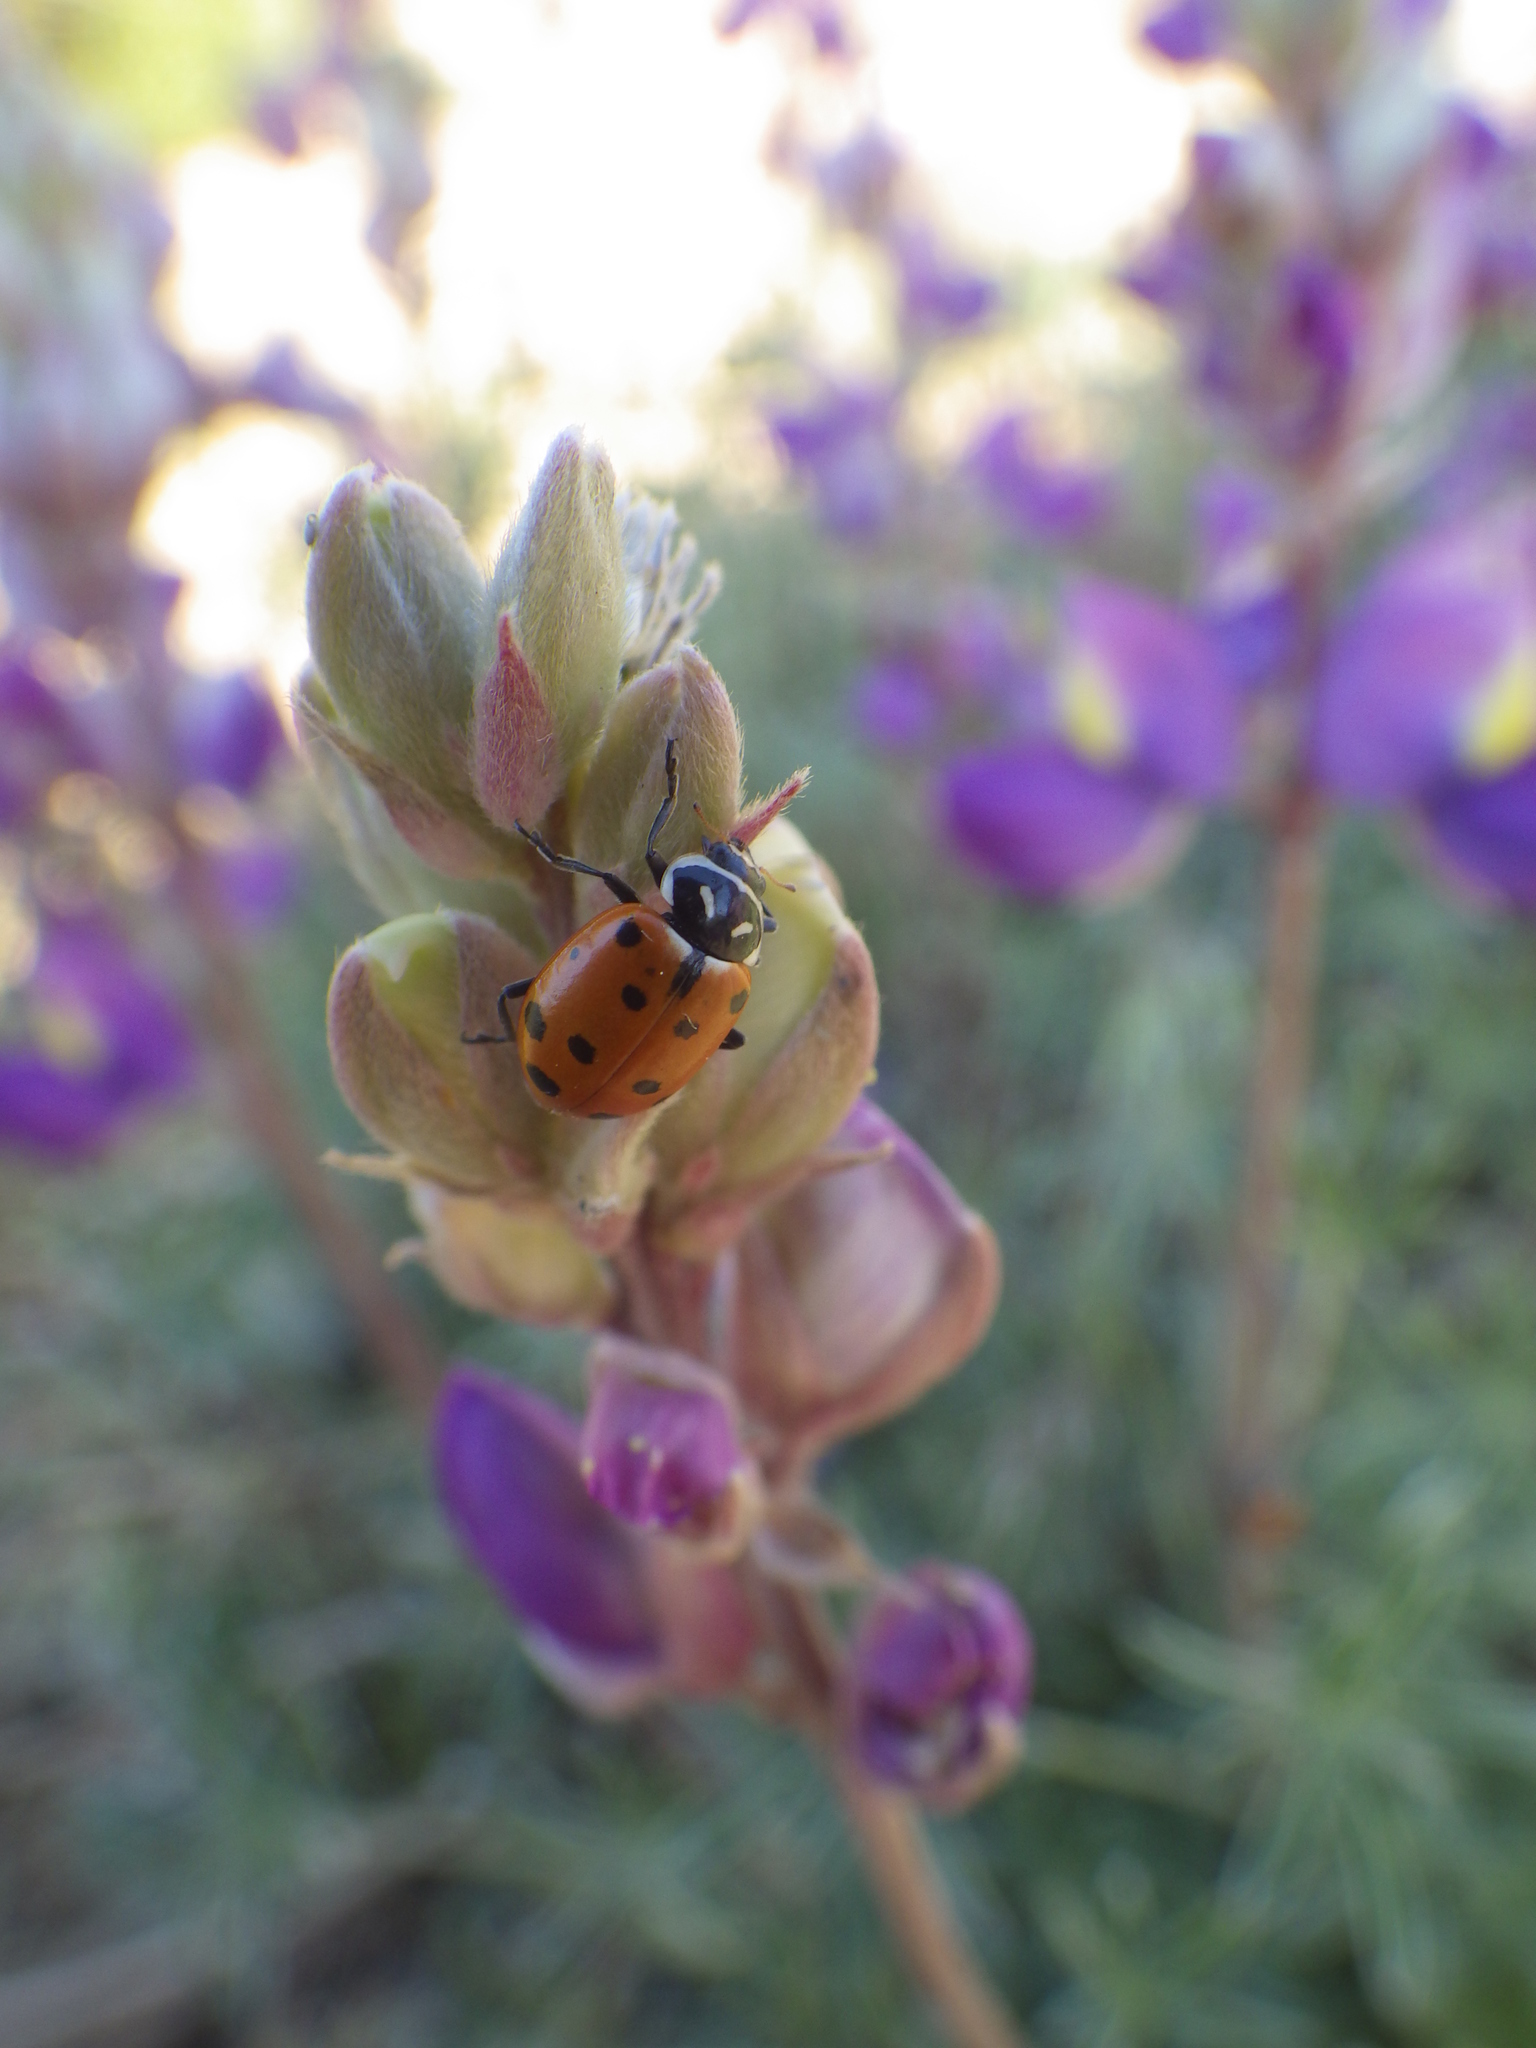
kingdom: Animalia
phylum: Arthropoda
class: Insecta
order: Coleoptera
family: Coccinellidae
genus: Hippodamia
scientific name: Hippodamia convergens
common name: Convergent lady beetle
